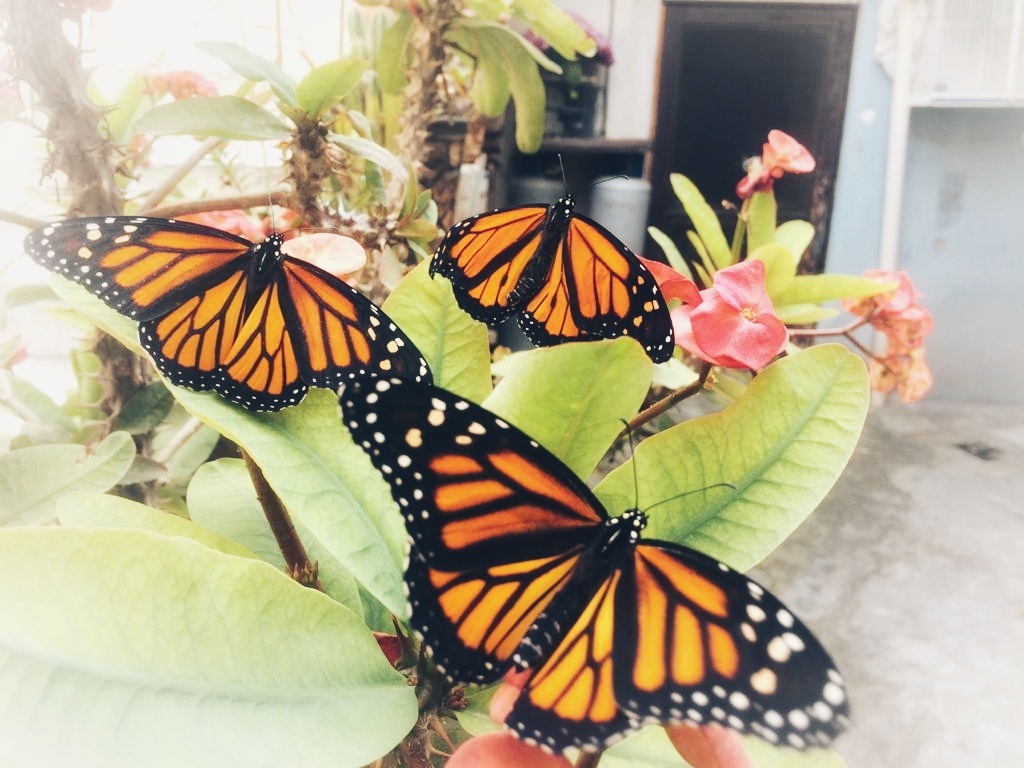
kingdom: Animalia
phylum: Arthropoda
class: Insecta
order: Lepidoptera
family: Nymphalidae
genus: Danaus
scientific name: Danaus plexippus
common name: Monarch
